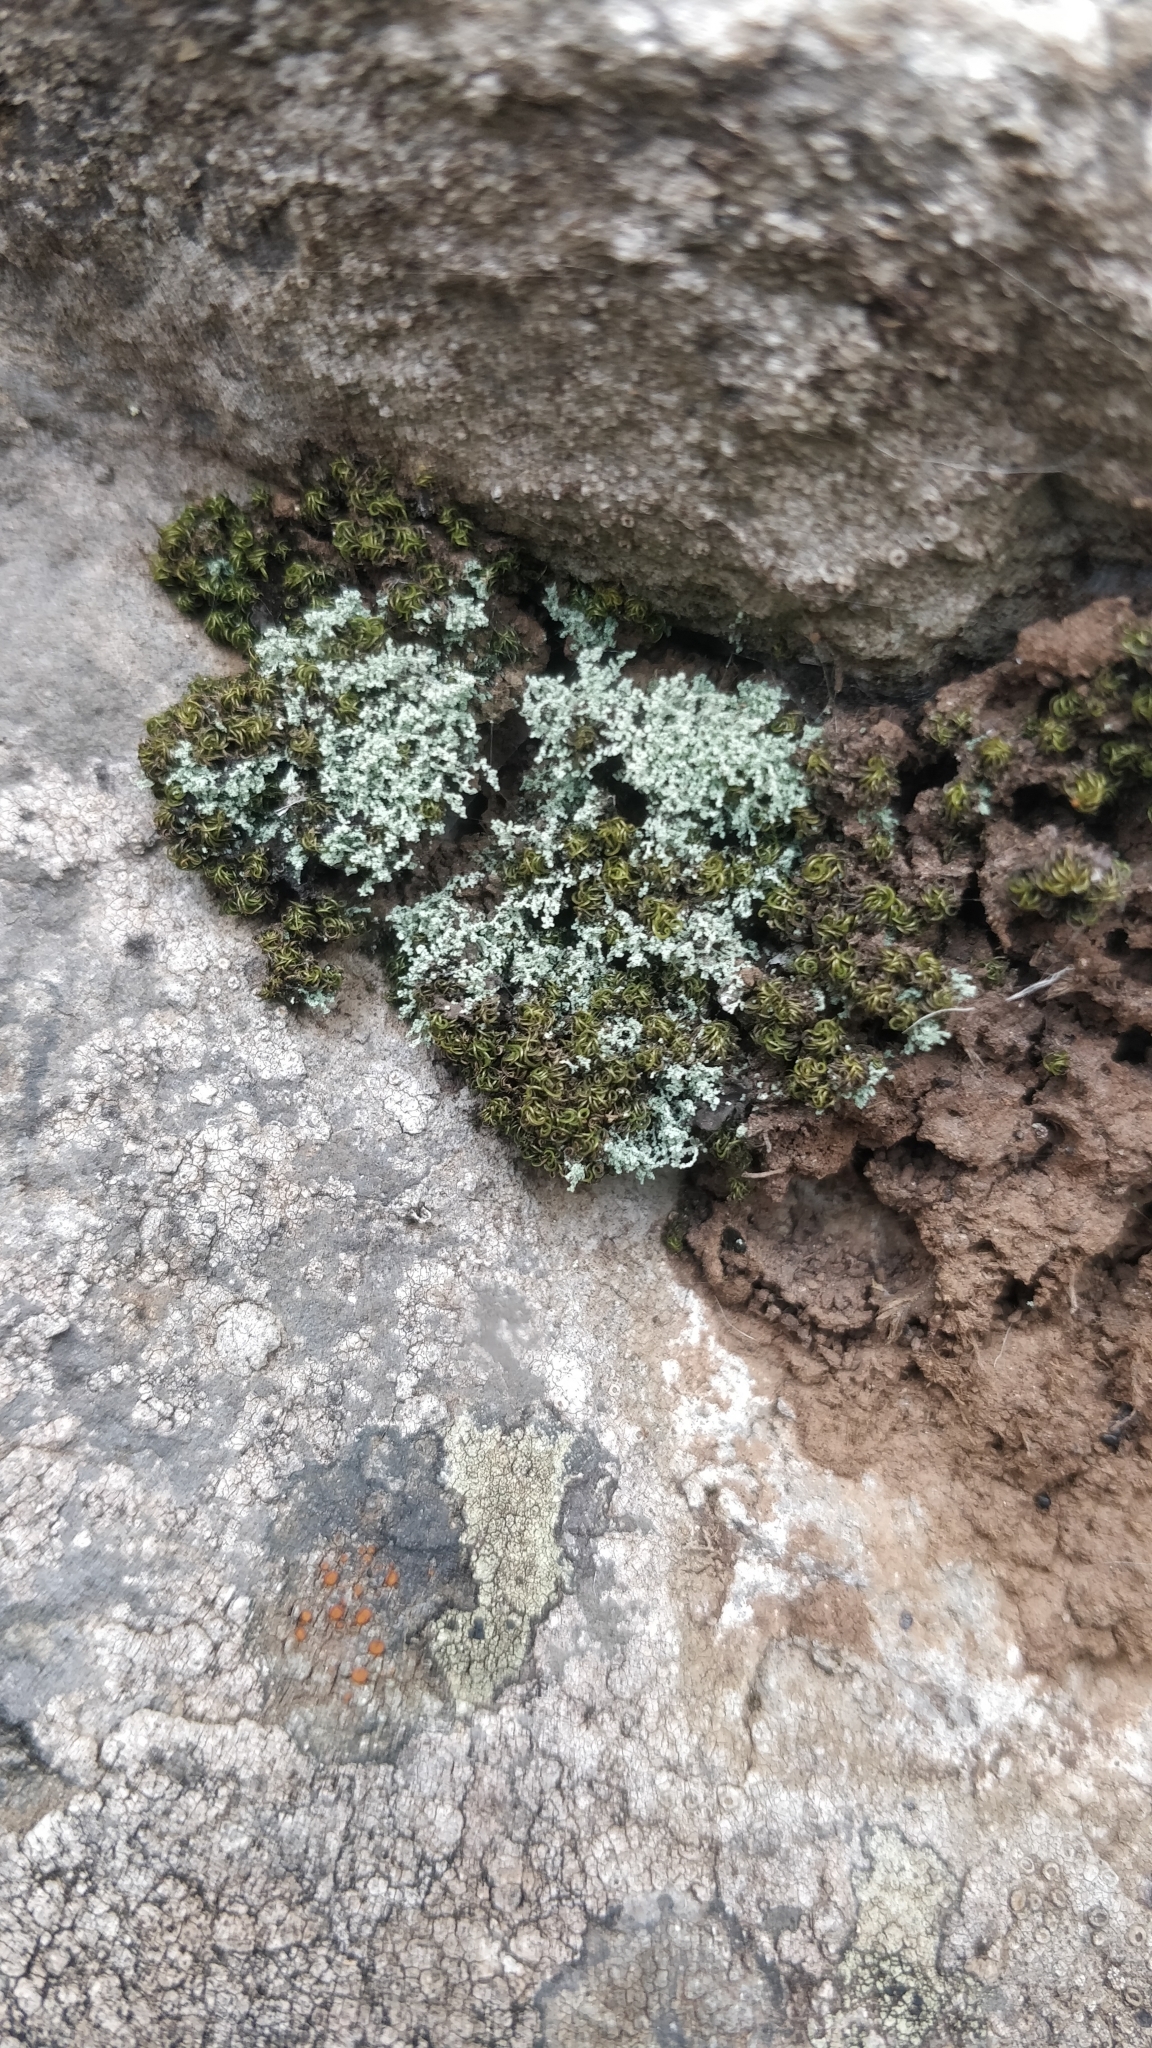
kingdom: Fungi
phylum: Ascomycota
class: Lecanoromycetes
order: Teloschistales
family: Leprocaulaceae
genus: Leprocaulon
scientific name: Leprocaulon quisquiliare
